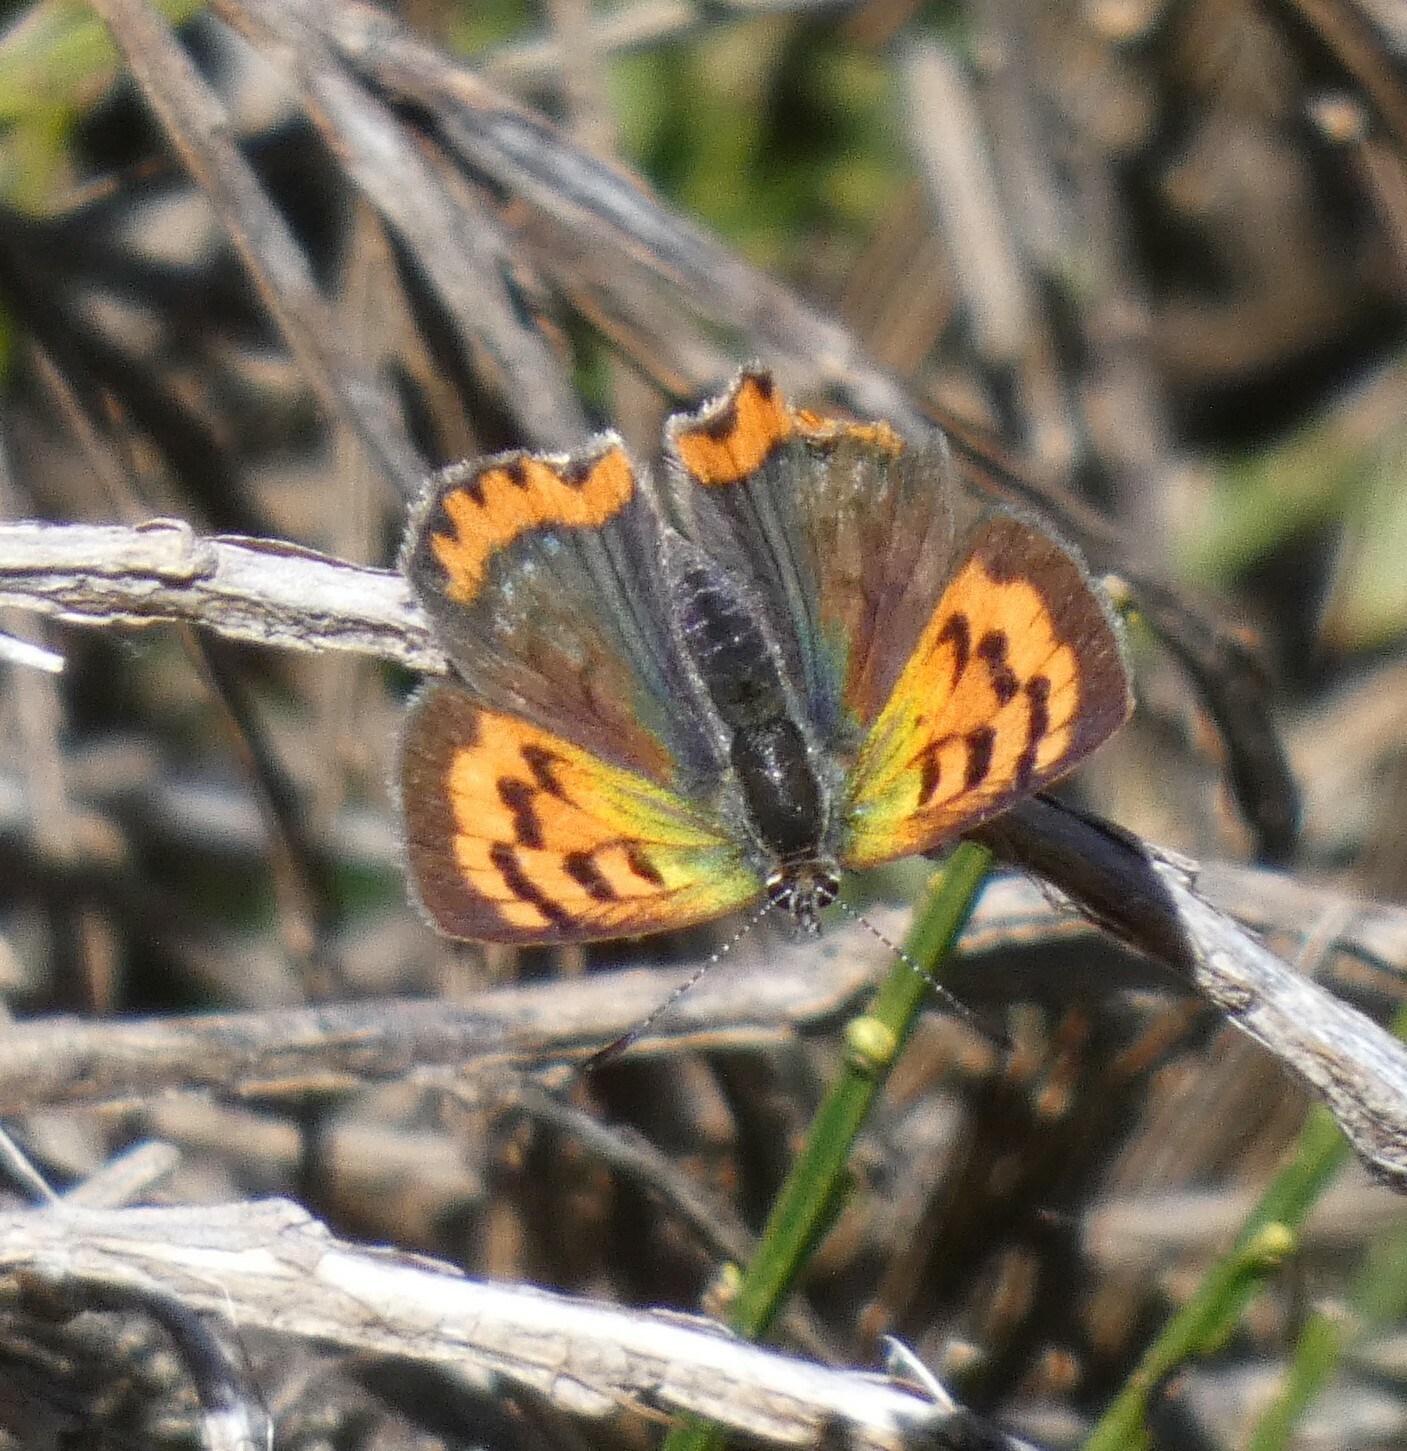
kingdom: Animalia
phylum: Arthropoda
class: Insecta
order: Lepidoptera
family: Lycaenidae
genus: Lycaena
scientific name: Lycaena phlaeas
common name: Small copper
